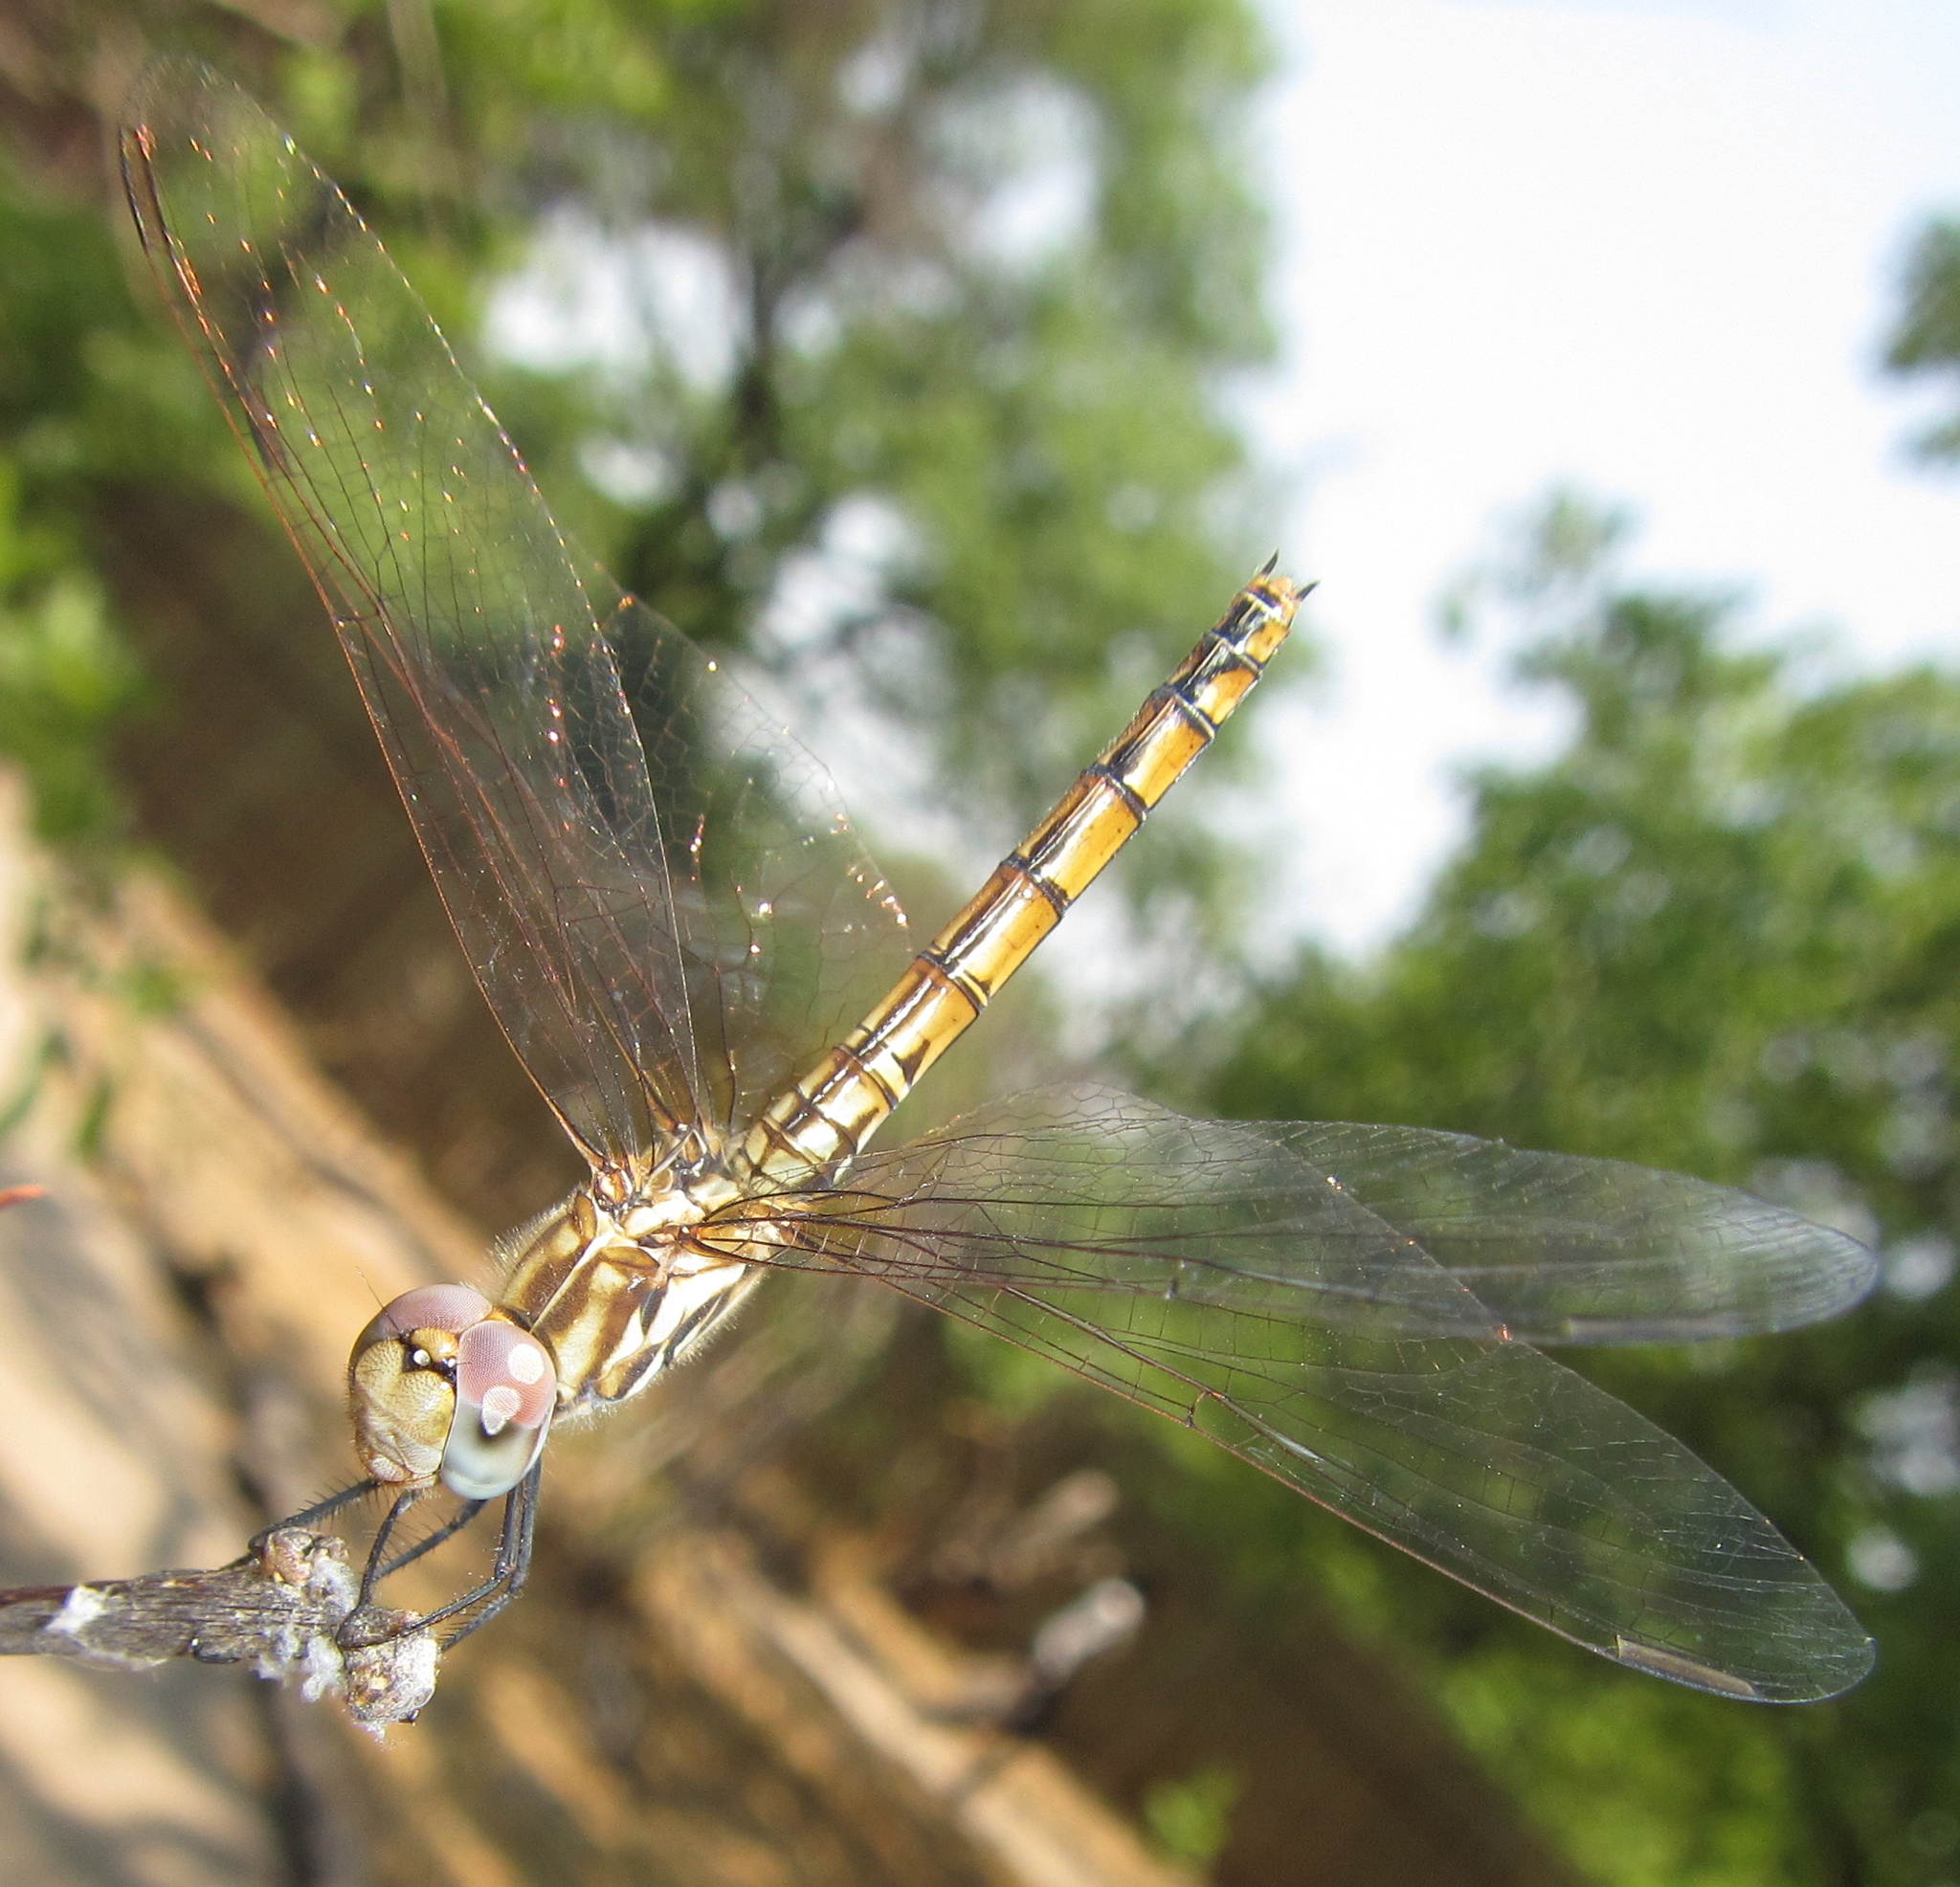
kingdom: Animalia
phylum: Arthropoda
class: Insecta
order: Odonata
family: Libellulidae
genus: Trithemis
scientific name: Trithemis annulata
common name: Violet dropwing
